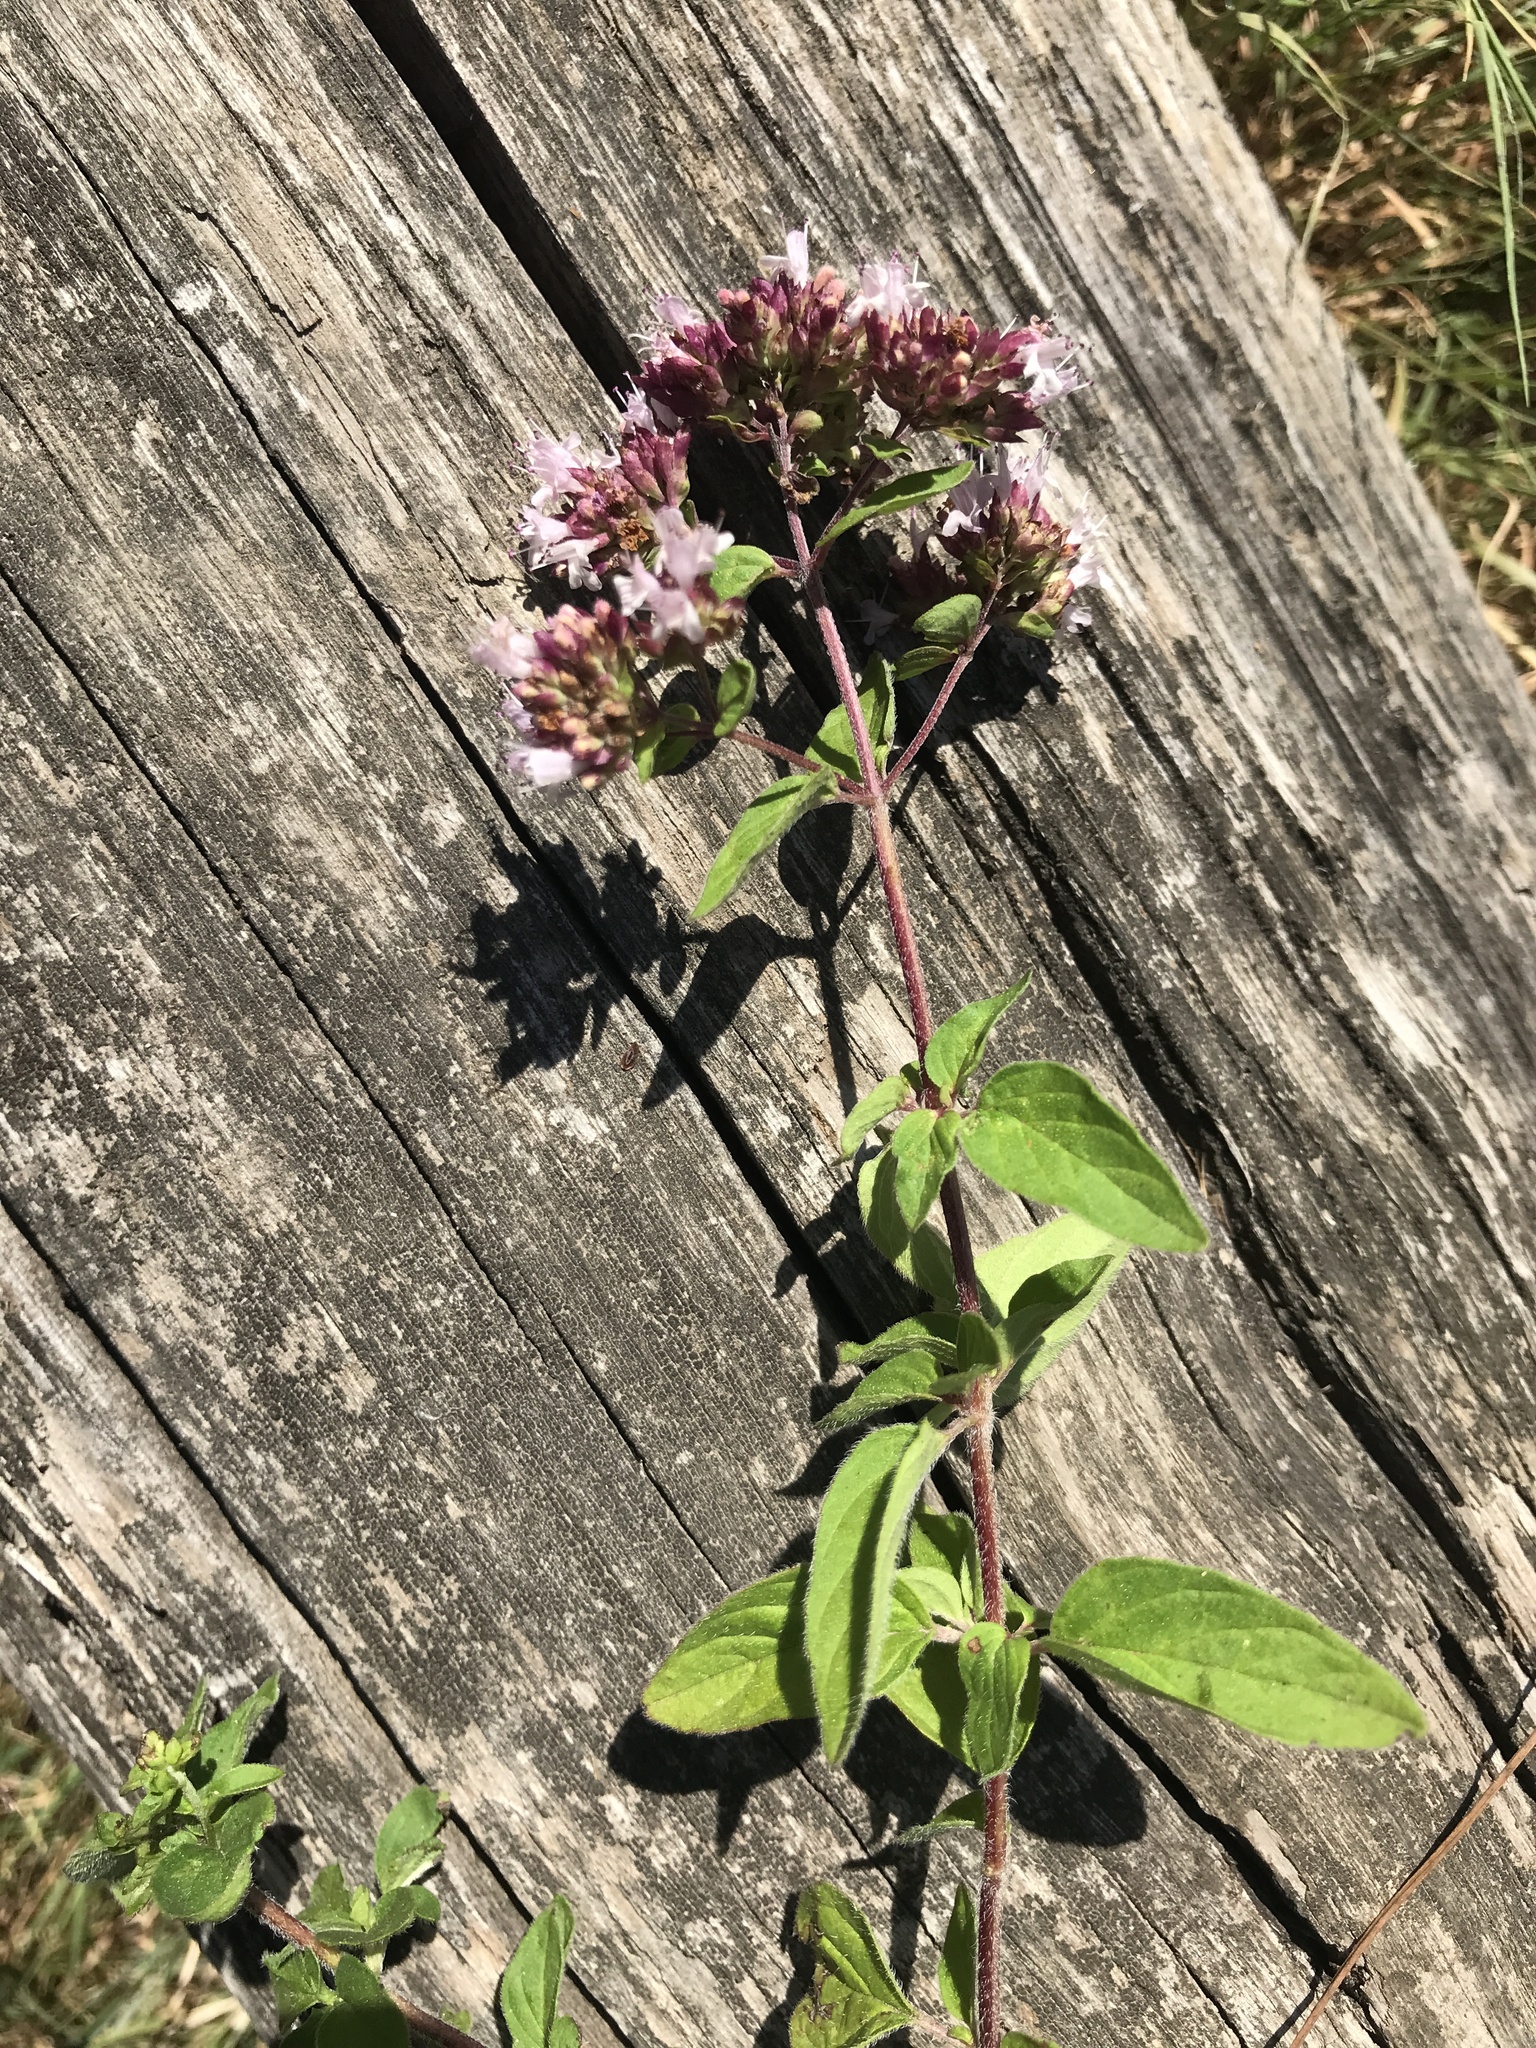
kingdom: Plantae
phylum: Tracheophyta
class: Magnoliopsida
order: Lamiales
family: Lamiaceae
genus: Origanum
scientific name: Origanum vulgare
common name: Wild marjoram
